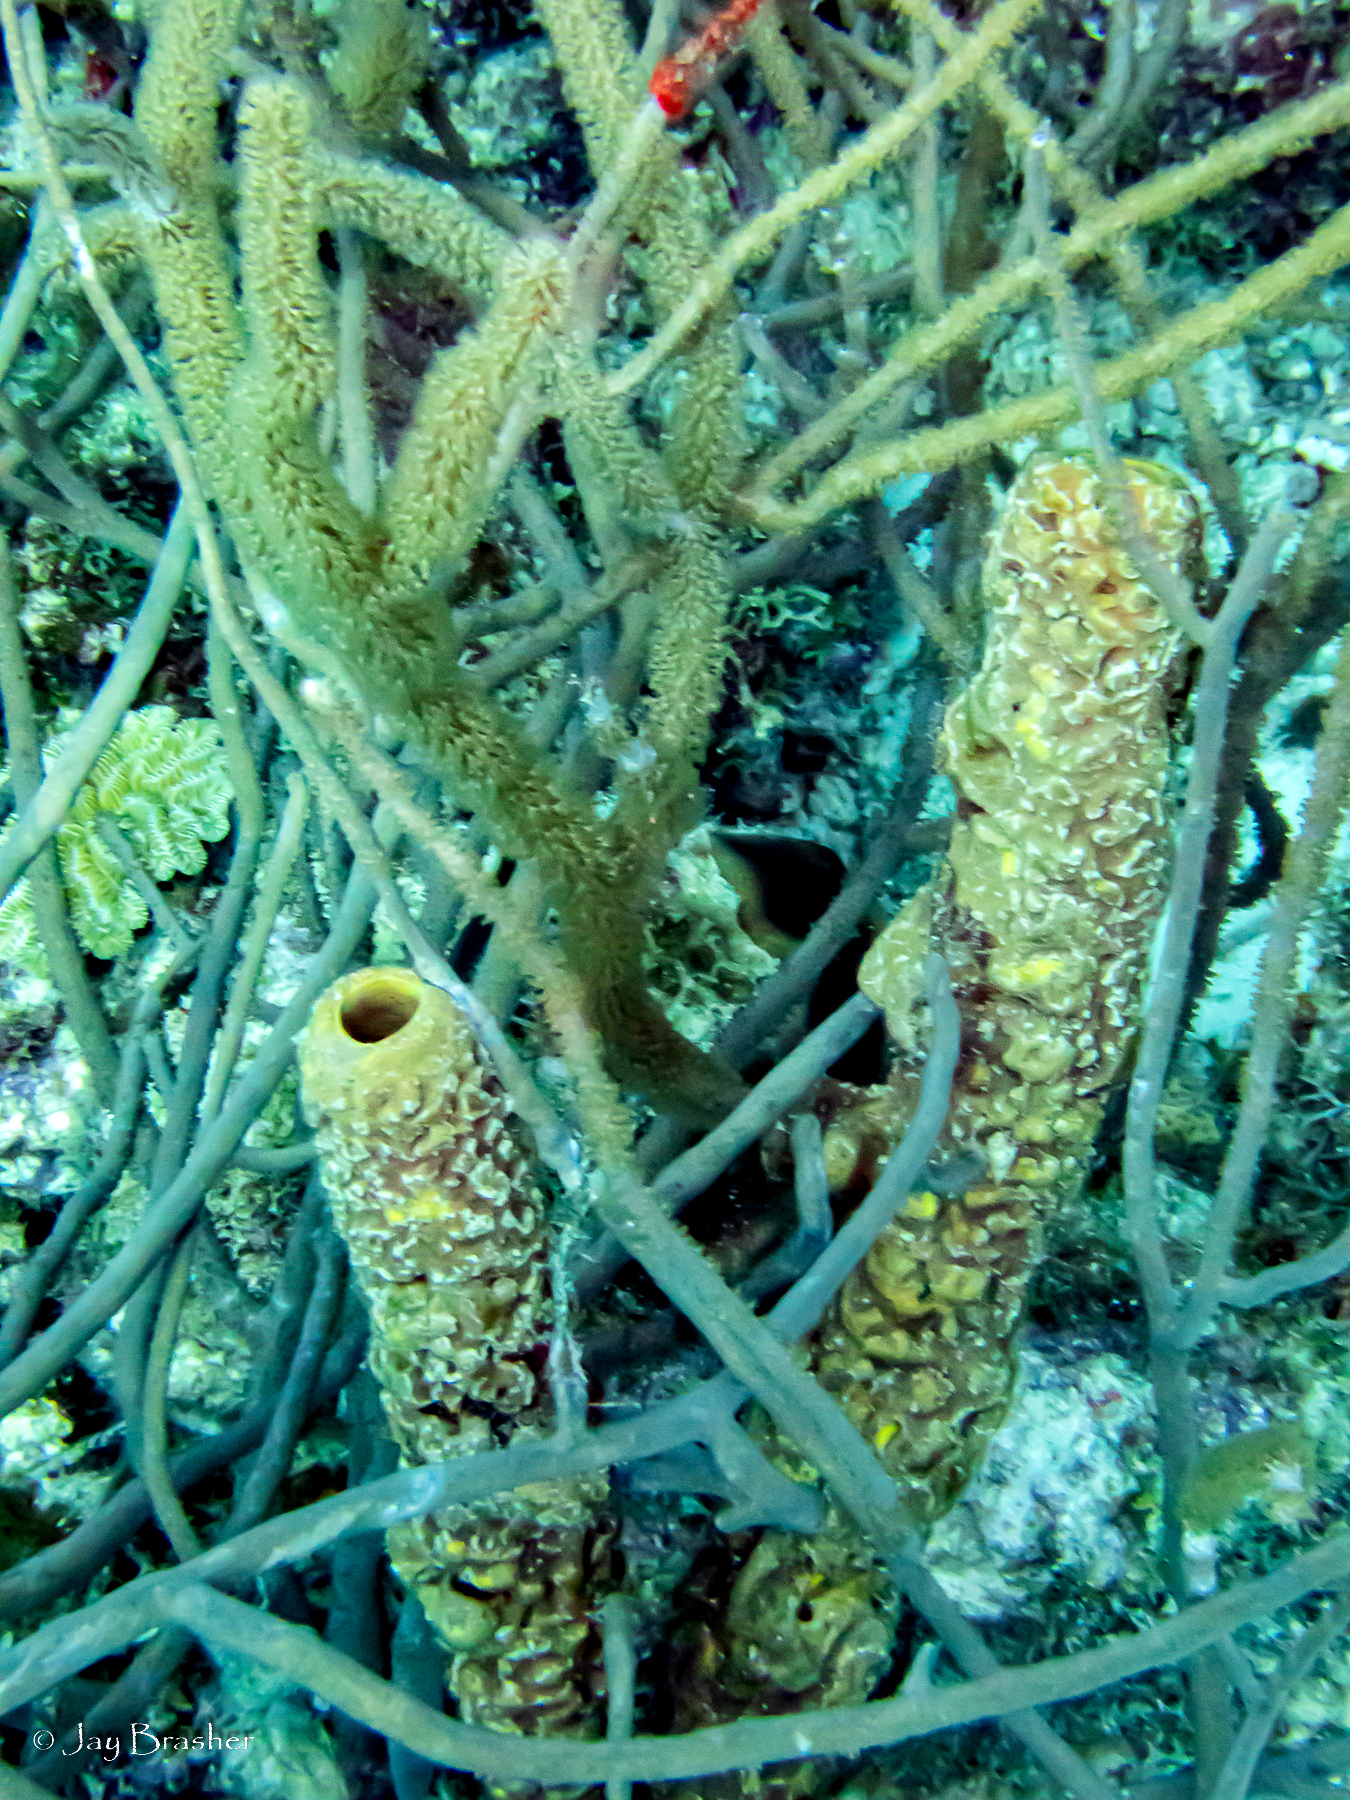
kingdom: Animalia
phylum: Porifera
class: Demospongiae
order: Verongiida
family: Aplysinidae
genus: Aplysina
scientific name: Aplysina archeri
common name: Stove-pipe sponge
